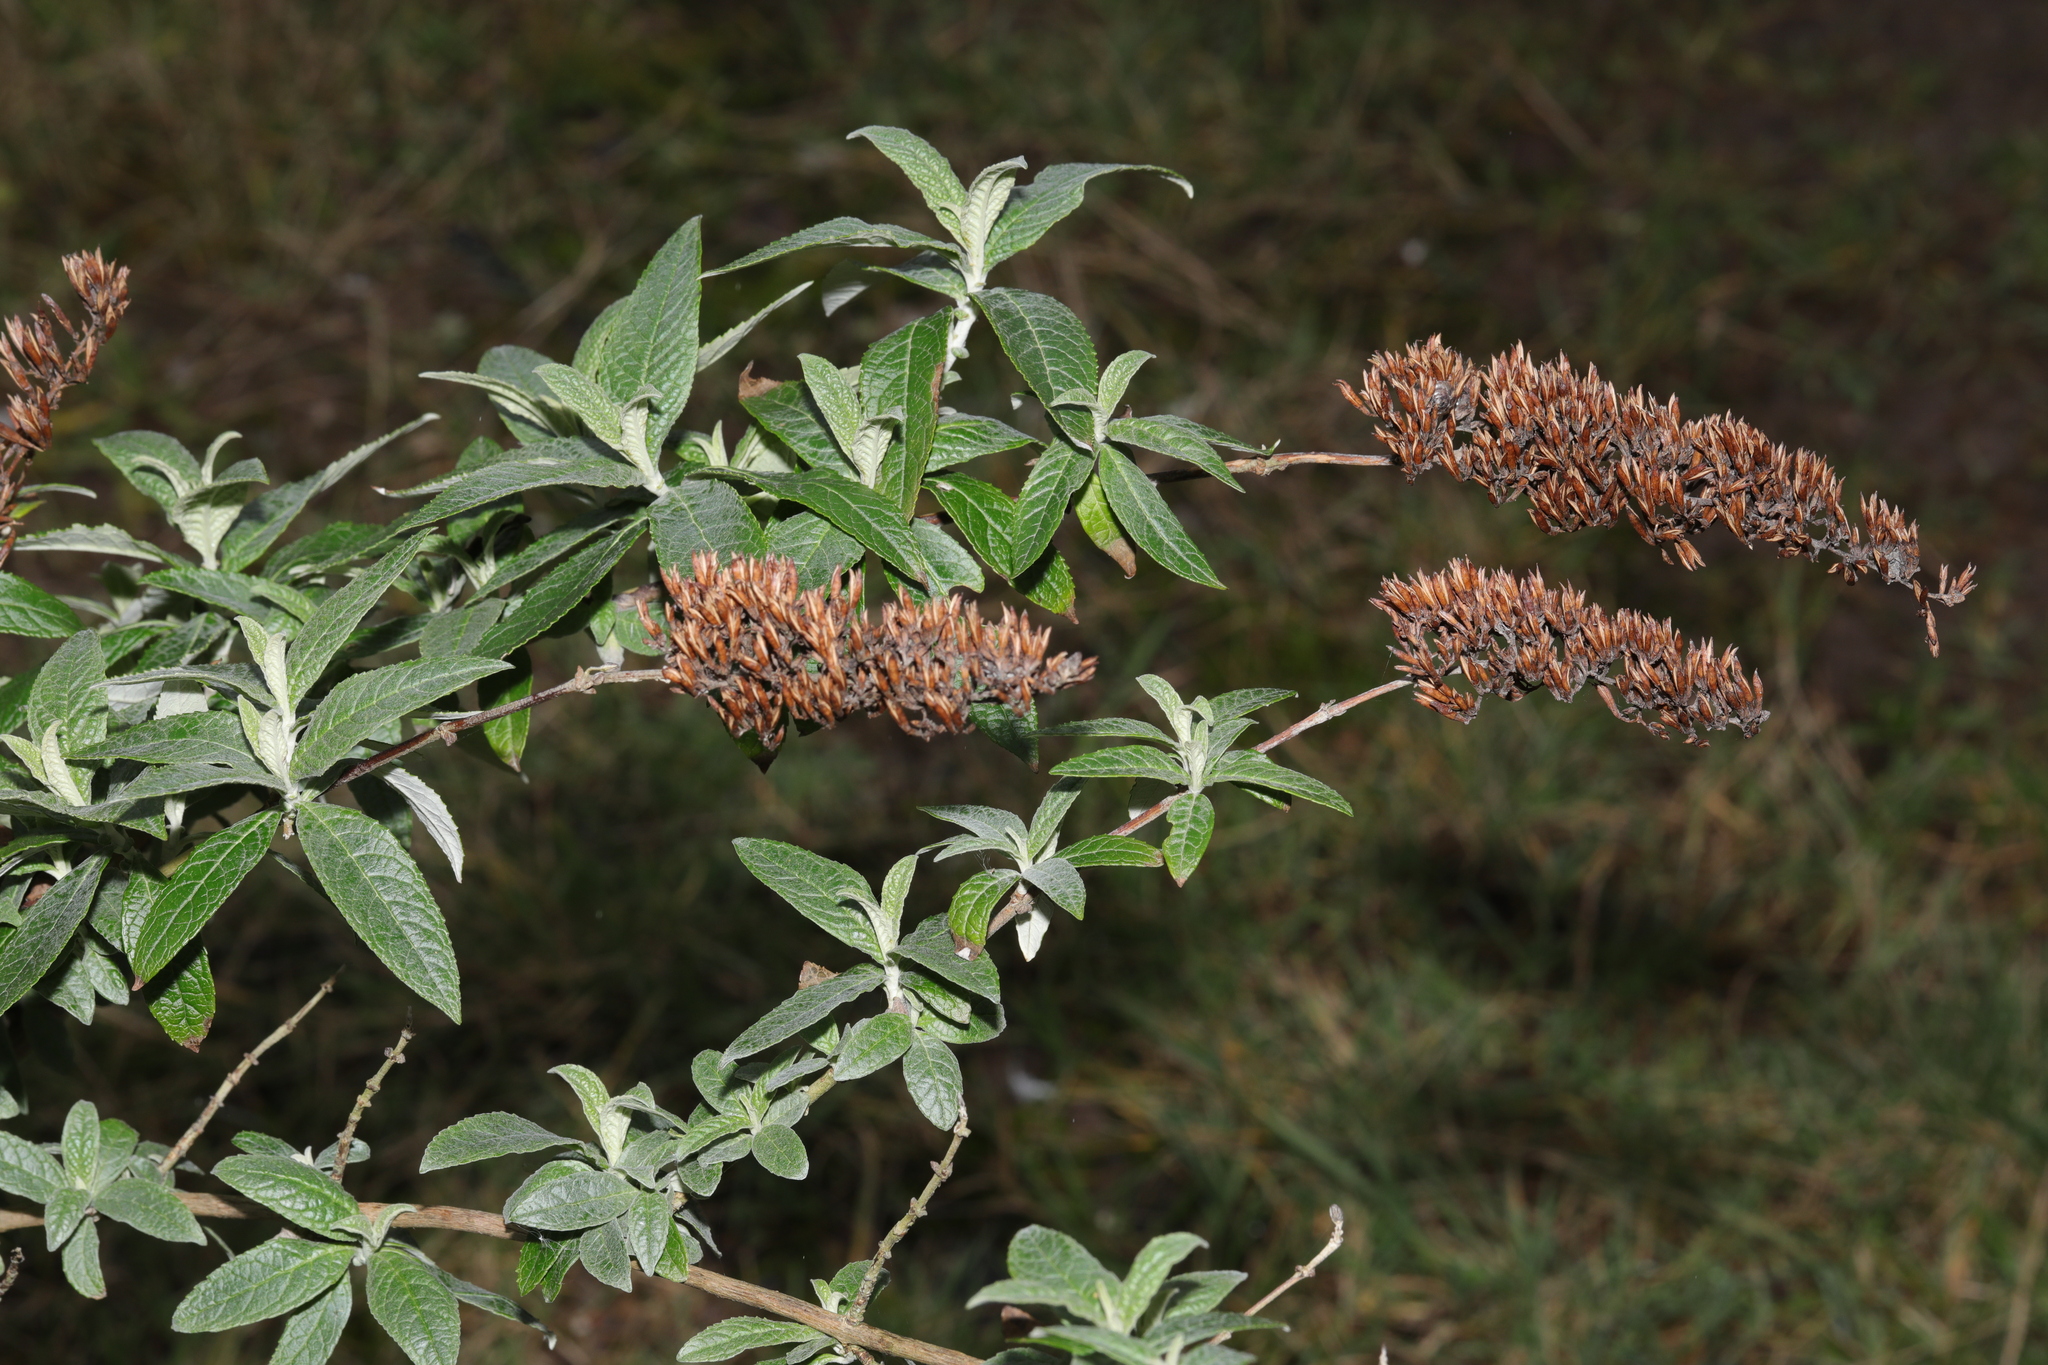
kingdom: Plantae
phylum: Tracheophyta
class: Magnoliopsida
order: Lamiales
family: Scrophulariaceae
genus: Buddleja
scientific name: Buddleja davidii
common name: Butterfly-bush
